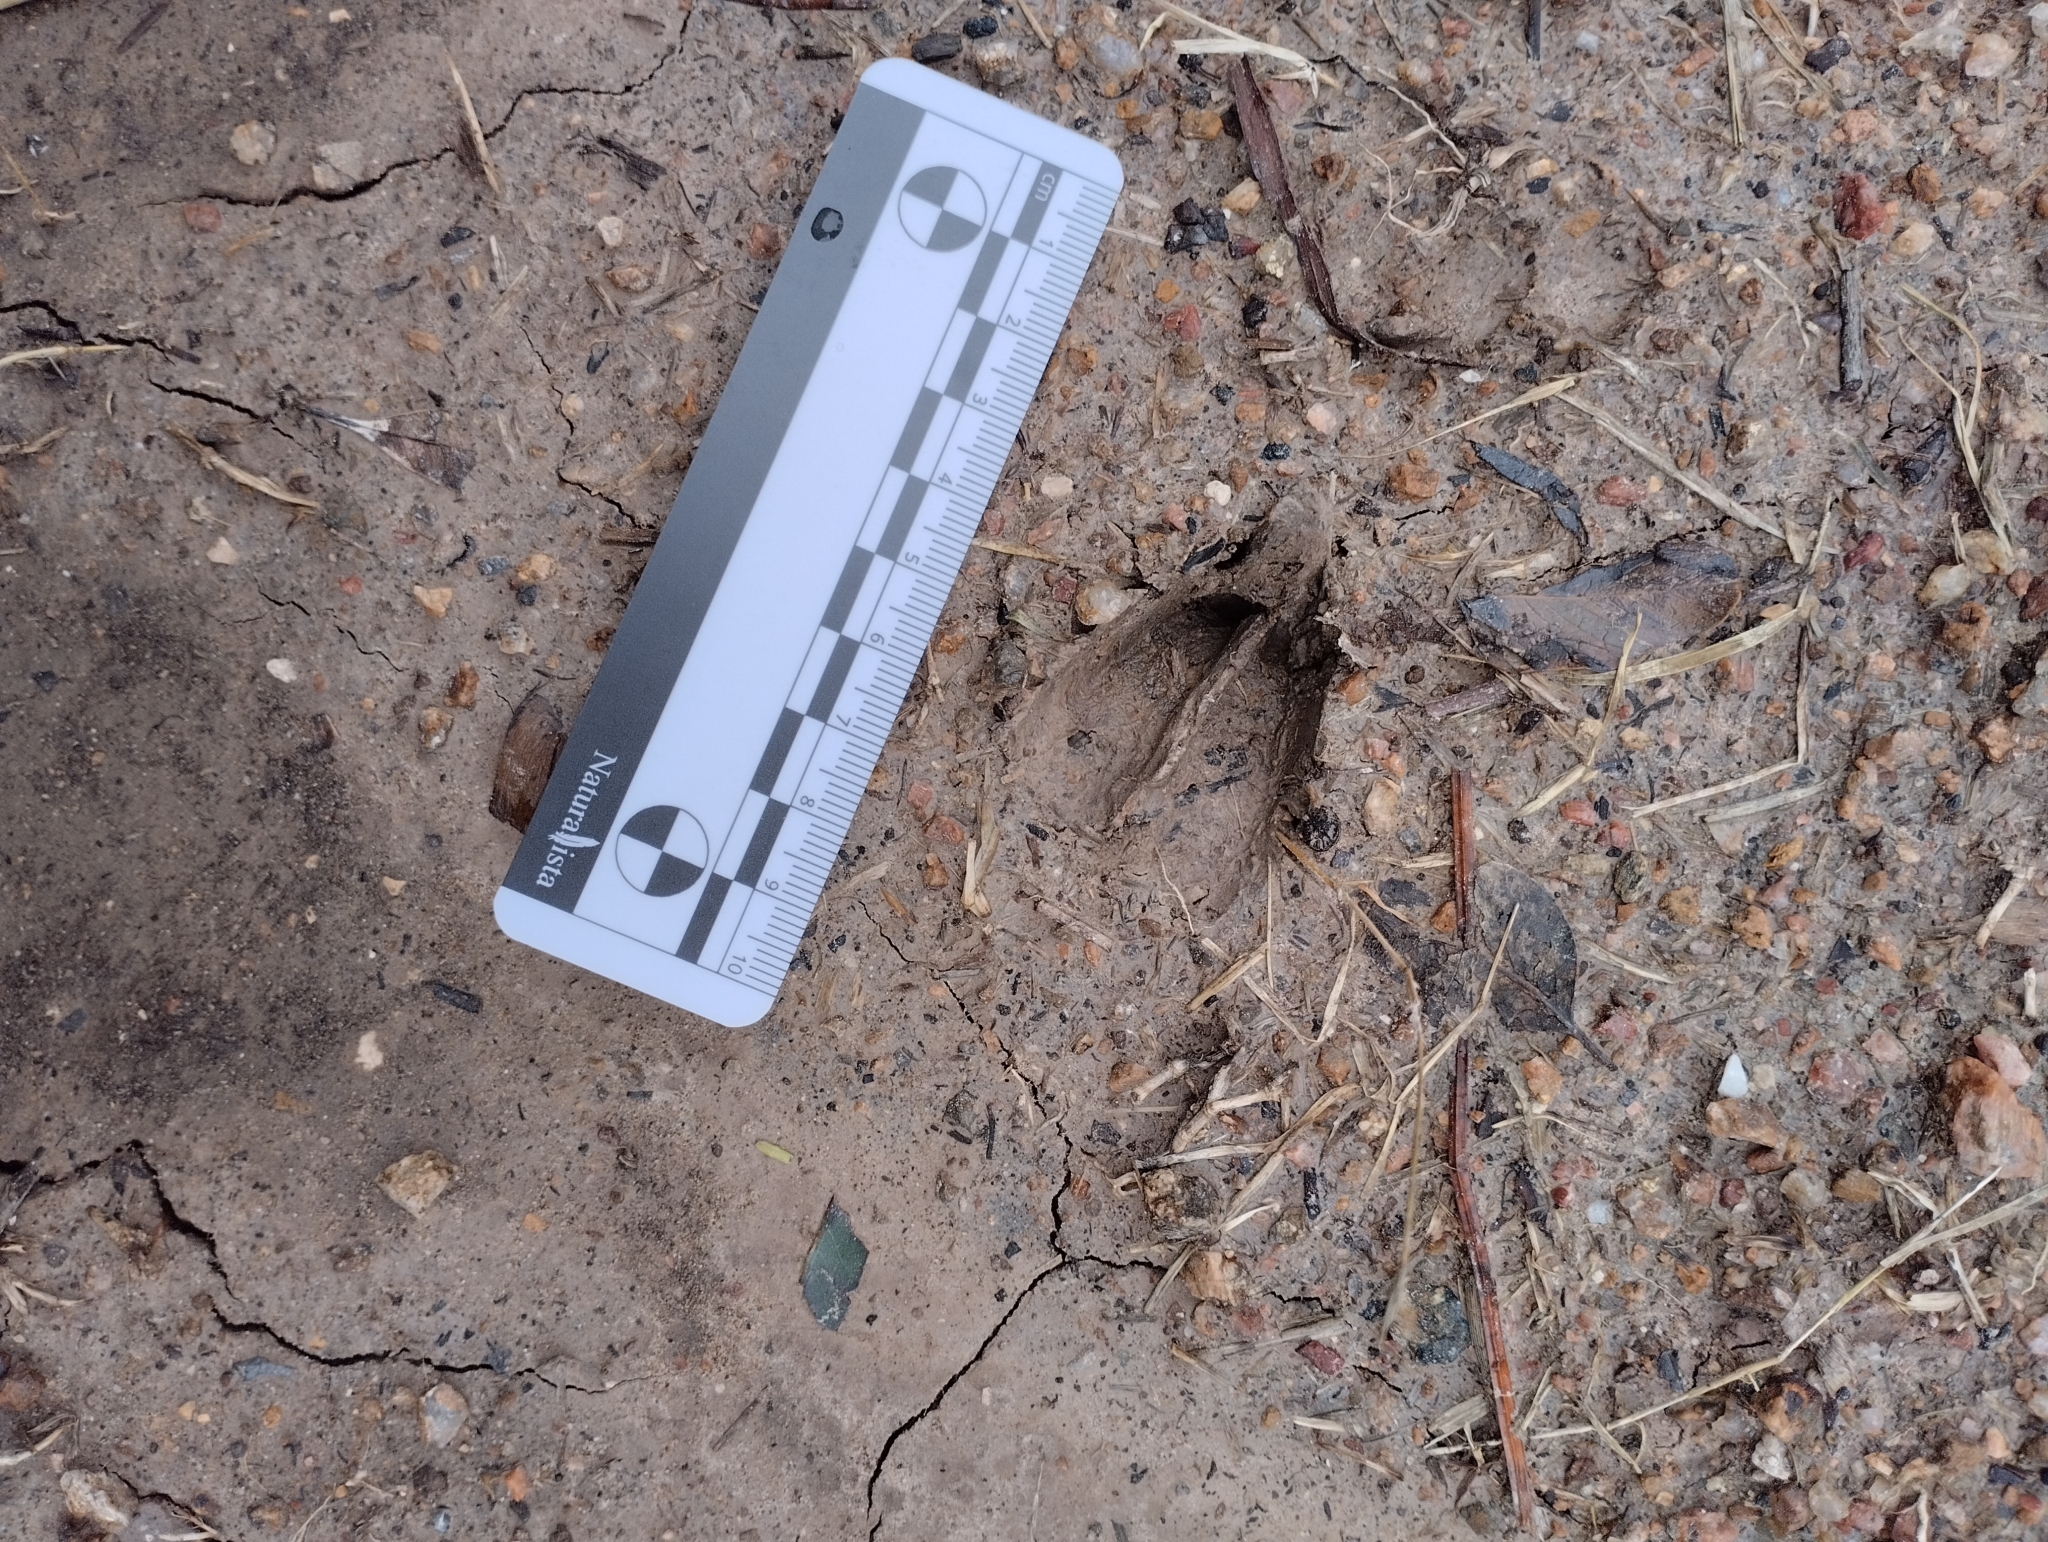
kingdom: Animalia
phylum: Chordata
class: Mammalia
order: Artiodactyla
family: Cervidae
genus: Mazama
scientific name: Mazama gouazoubira
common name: Gray brocket
